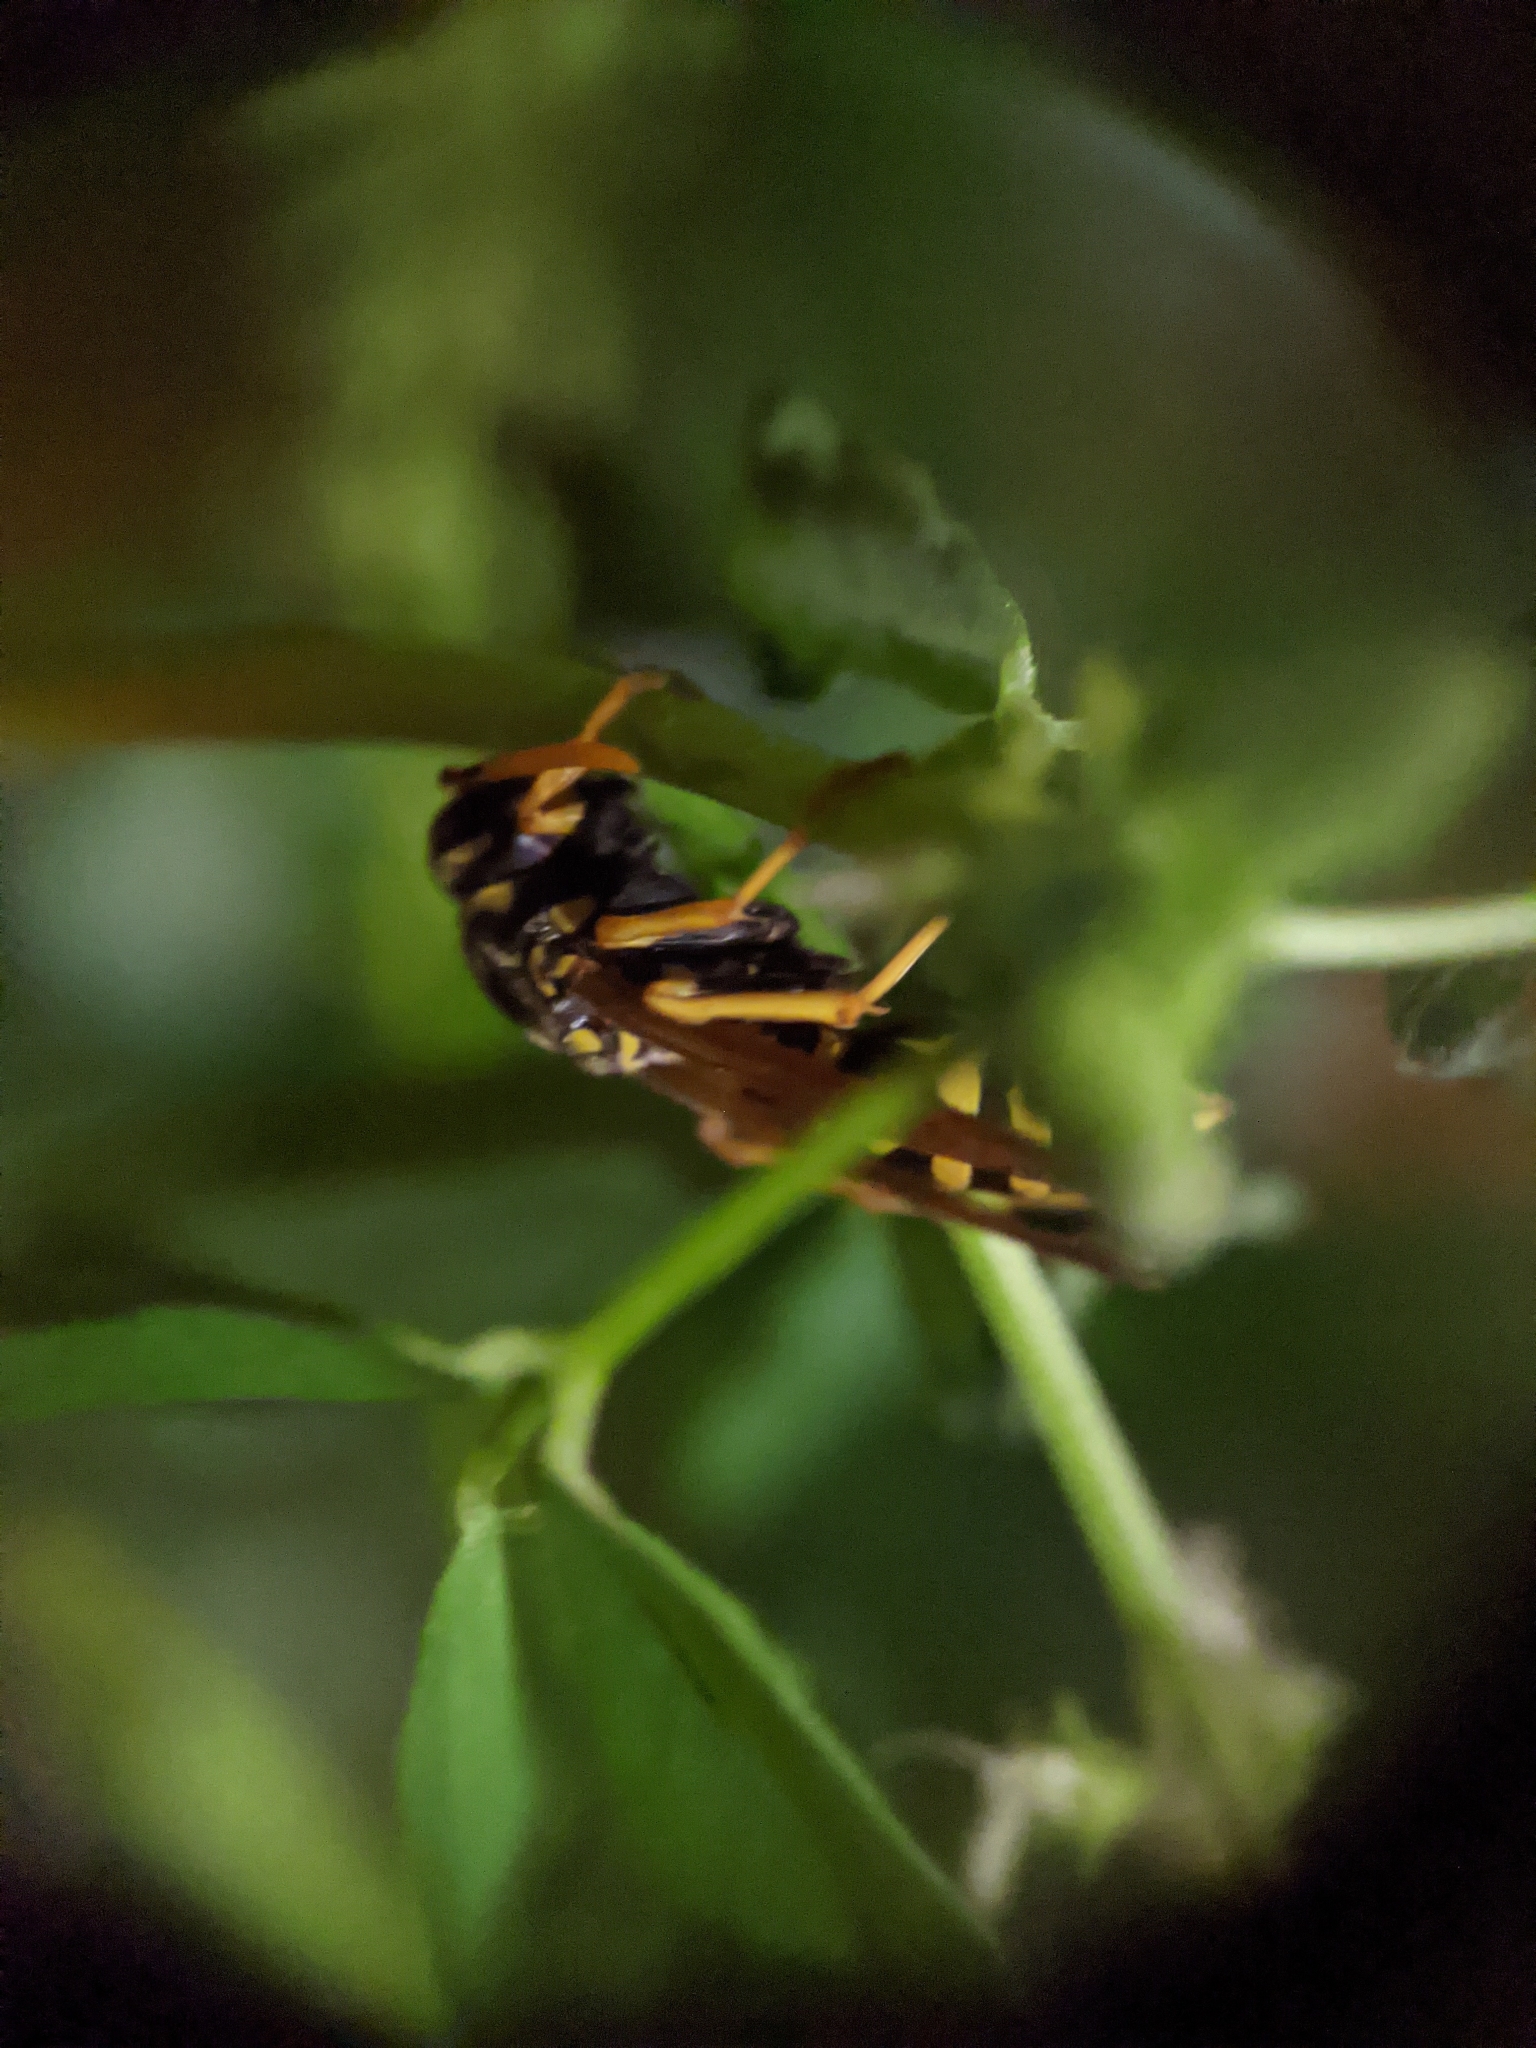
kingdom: Animalia
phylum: Arthropoda
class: Insecta
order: Hymenoptera
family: Eumenidae
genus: Polistes
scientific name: Polistes dominula
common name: Paper wasp
